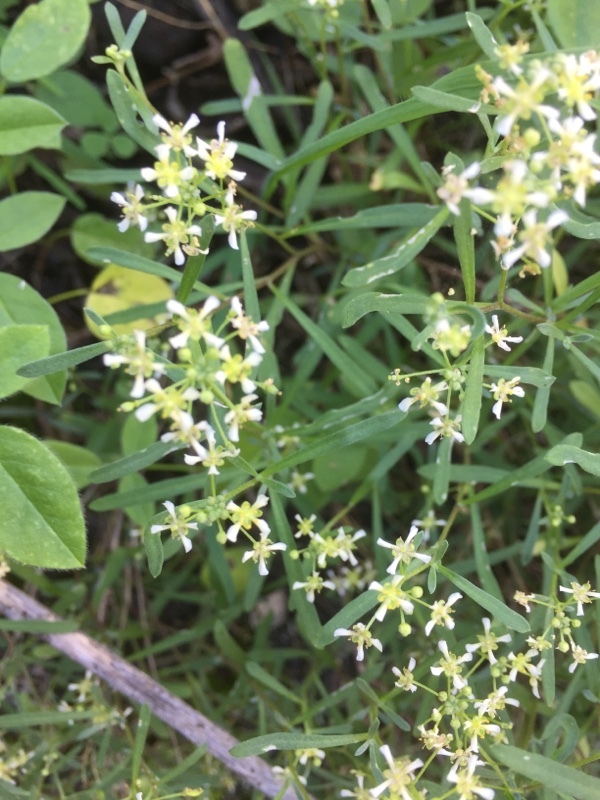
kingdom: Plantae
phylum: Tracheophyta
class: Magnoliopsida
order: Brassicales
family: Brassicaceae
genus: Lobularia
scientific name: Lobularia canariensis
